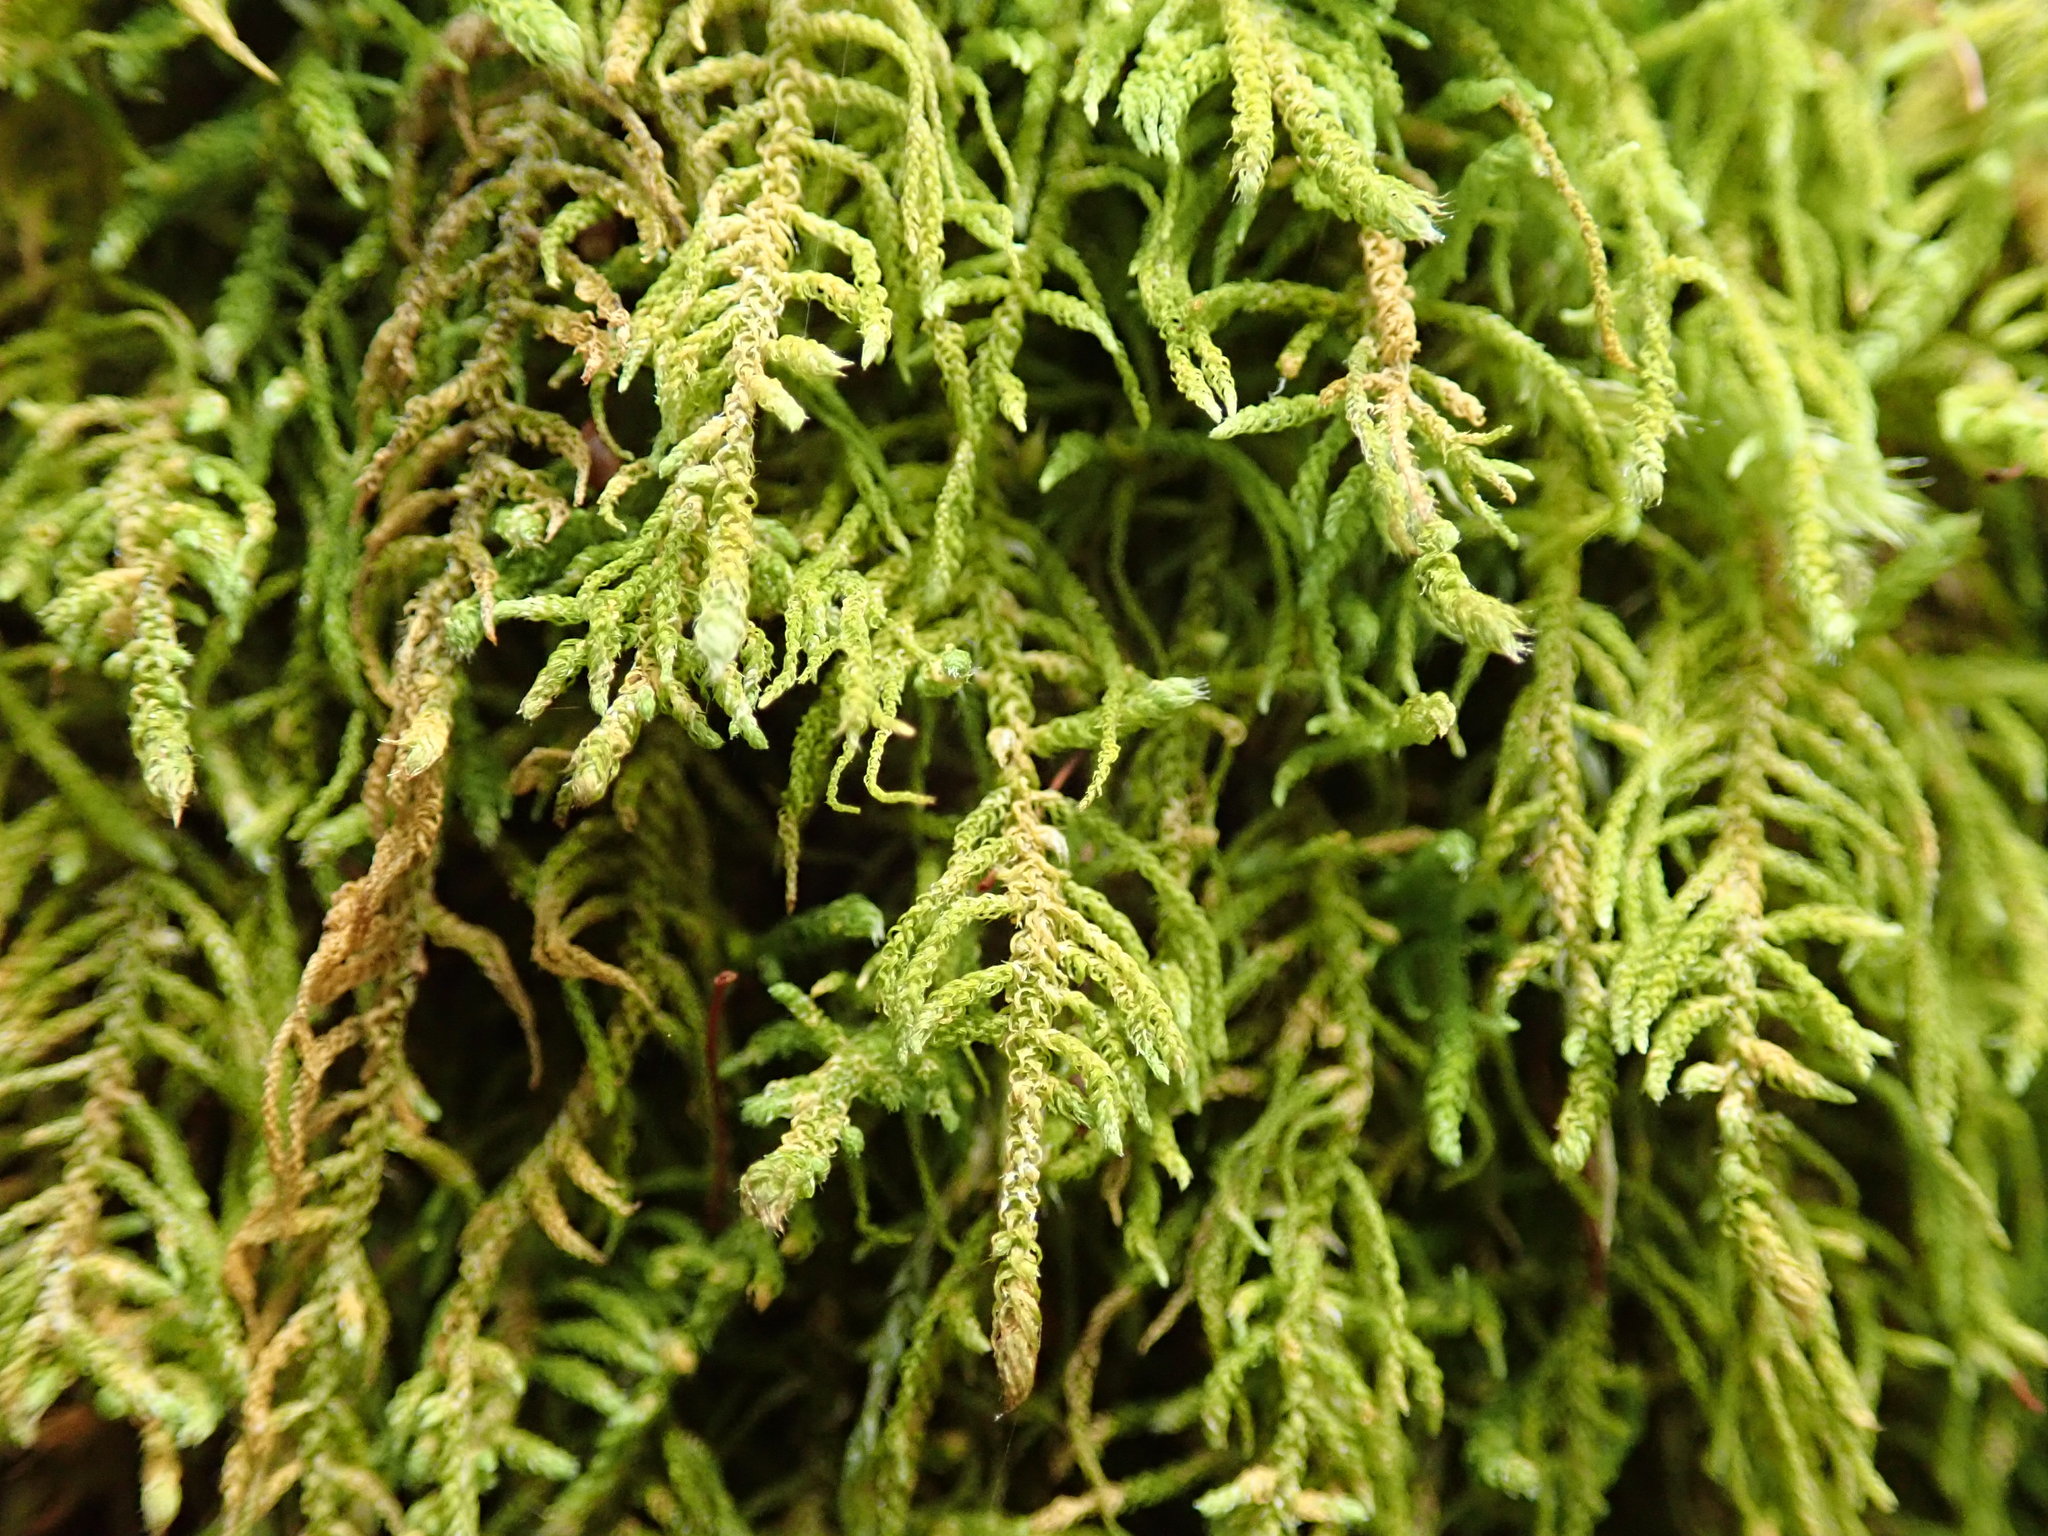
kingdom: Plantae
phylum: Bryophyta
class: Bryopsida
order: Hypnales
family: Brachytheciaceae
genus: Claopodium
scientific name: Claopodium crispifolium
